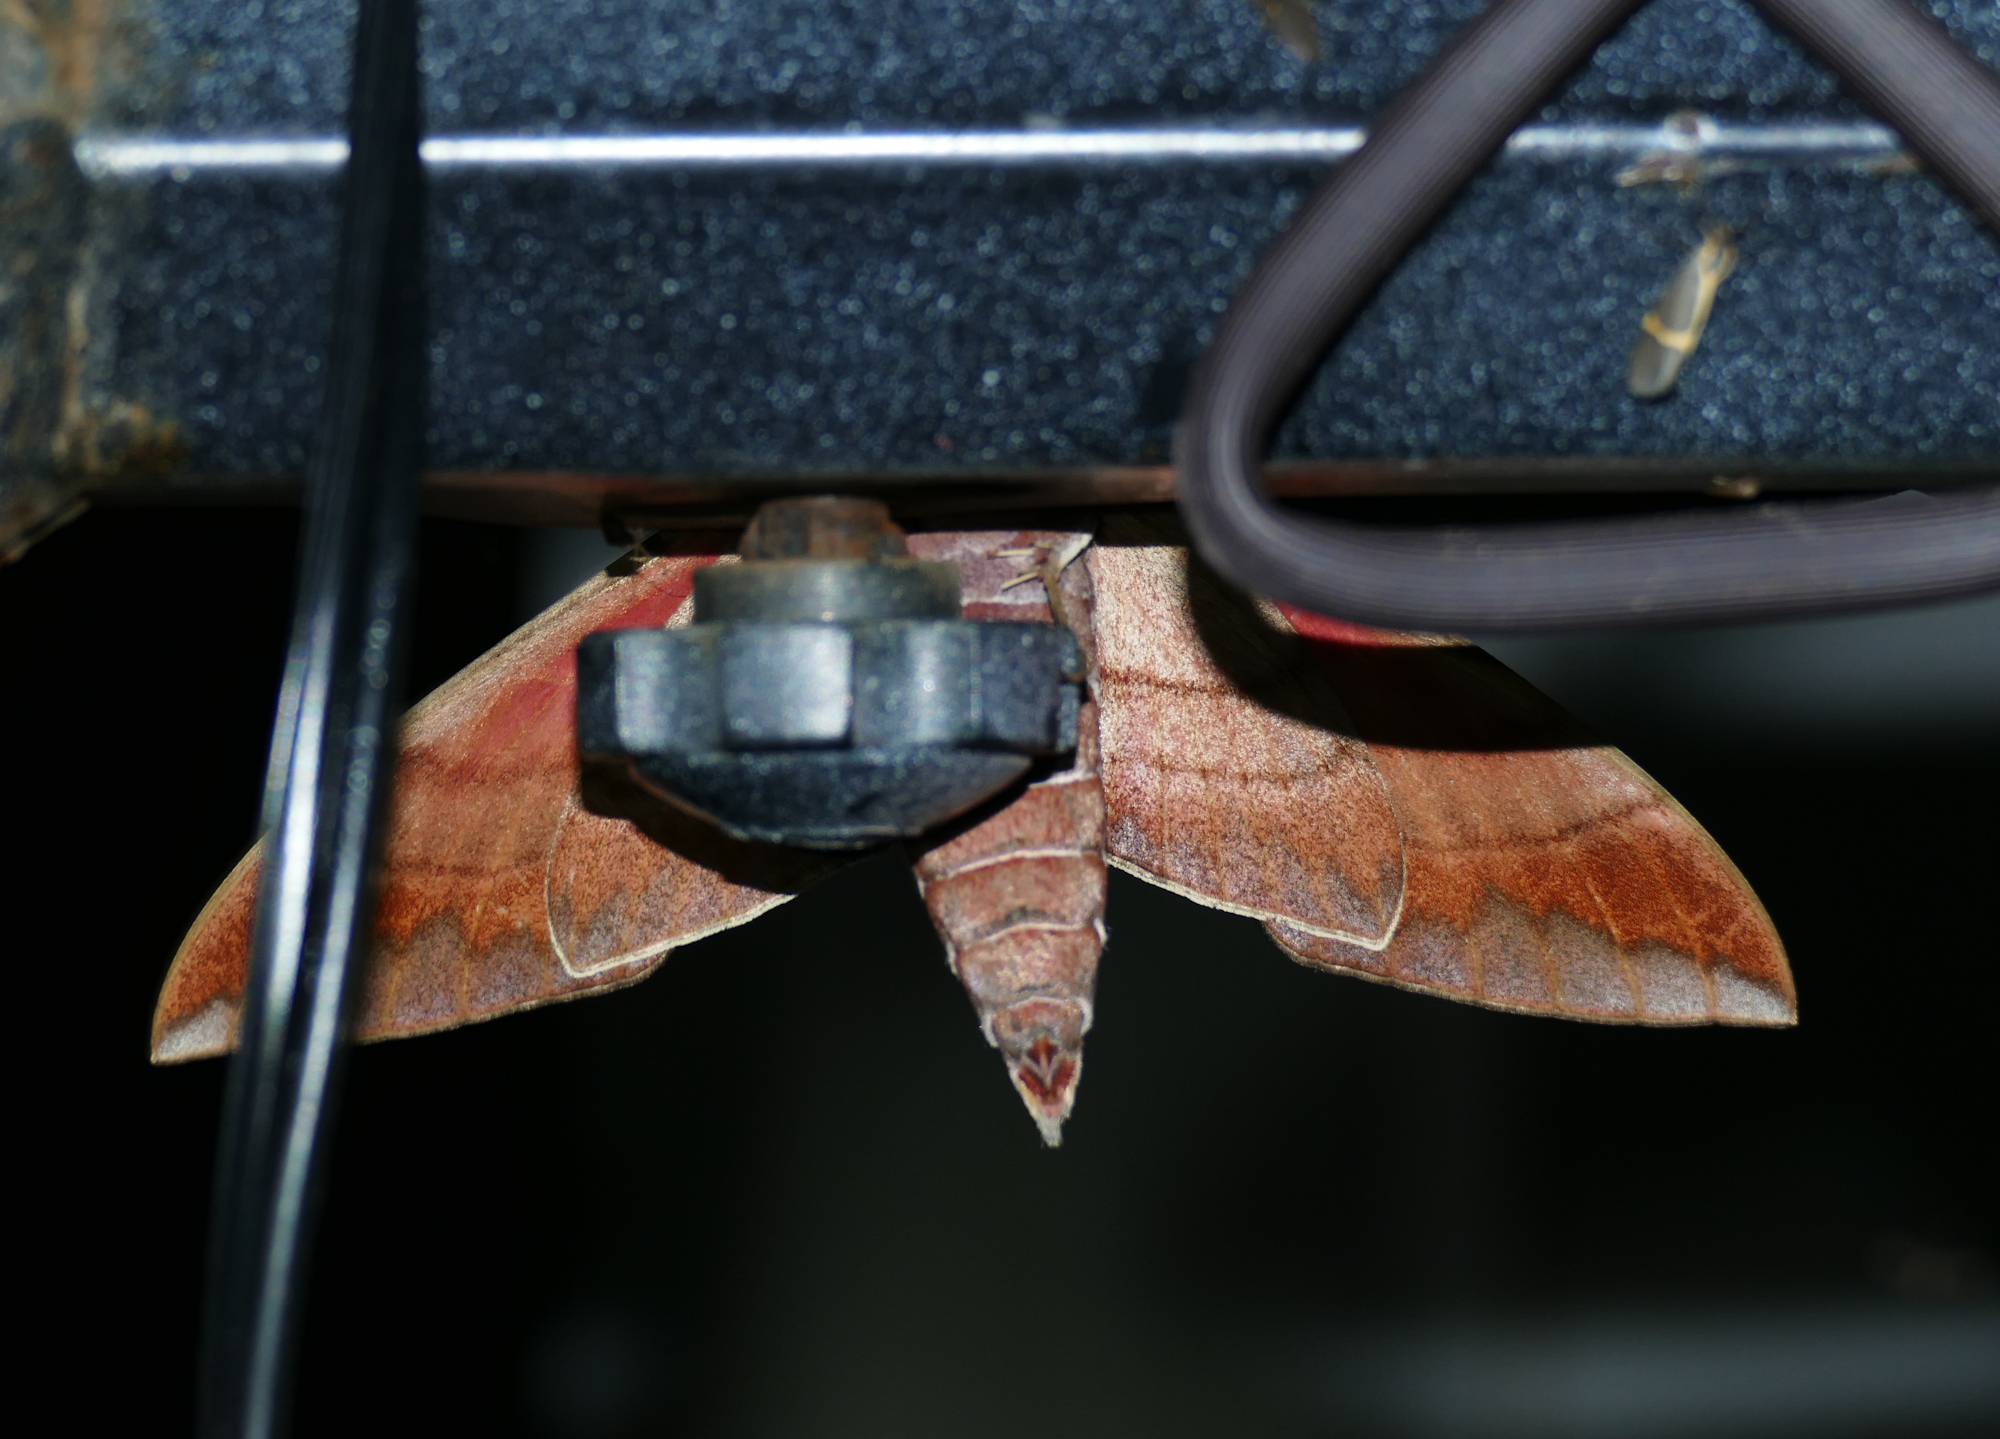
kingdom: Animalia
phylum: Arthropoda
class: Insecta
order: Lepidoptera
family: Sphingidae
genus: Eumorpha
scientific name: Eumorpha typhon
